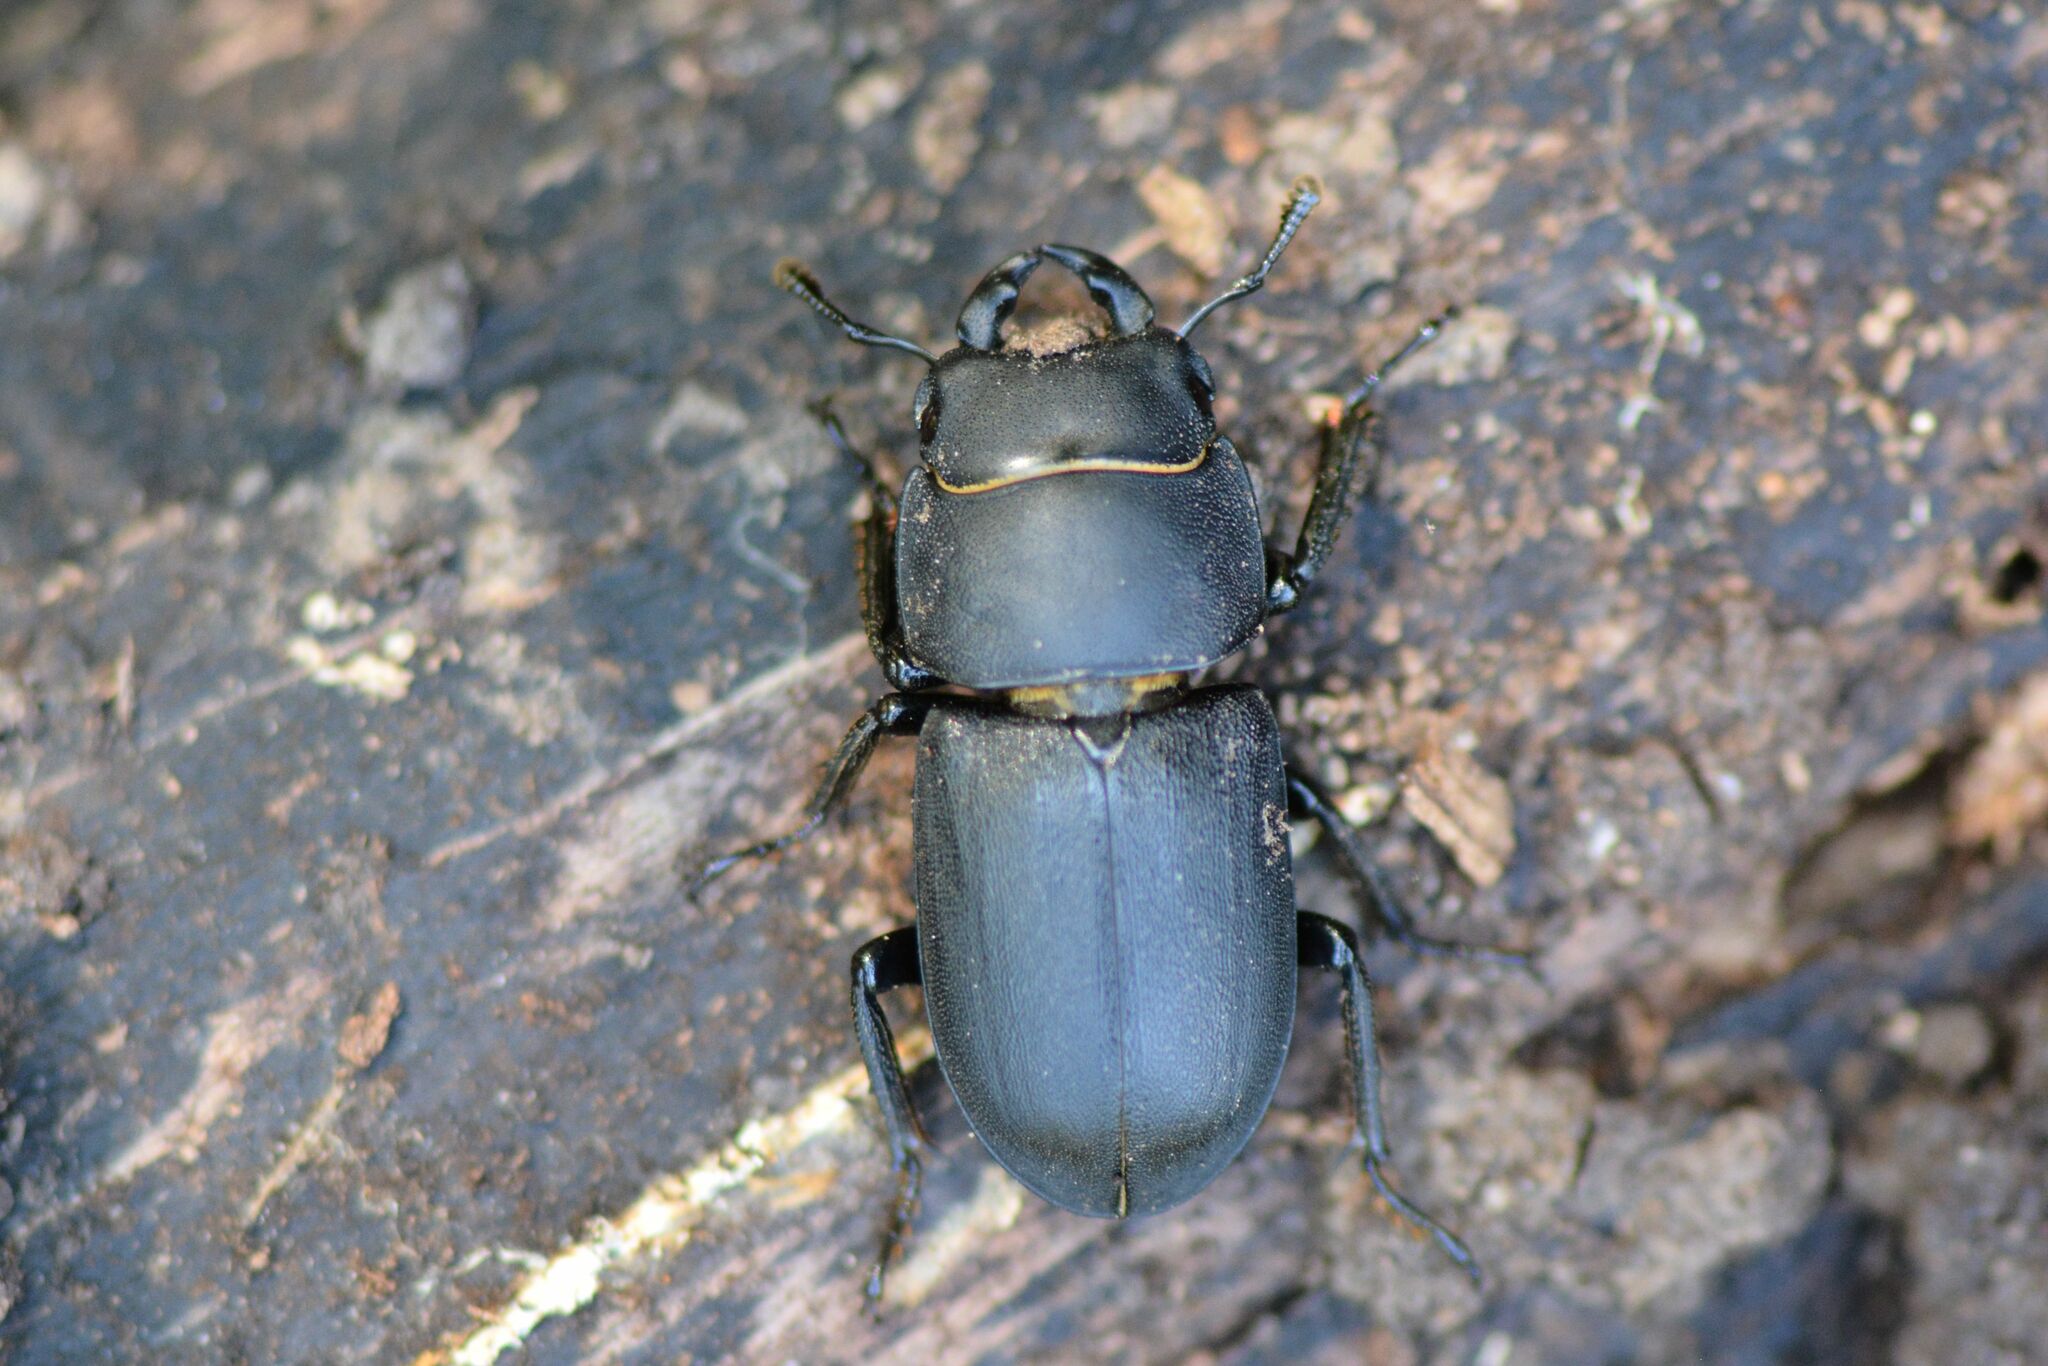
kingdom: Animalia
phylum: Arthropoda
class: Insecta
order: Coleoptera
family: Lucanidae
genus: Dorcus
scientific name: Dorcus parallelipipedus
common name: Lesser stag beetle
